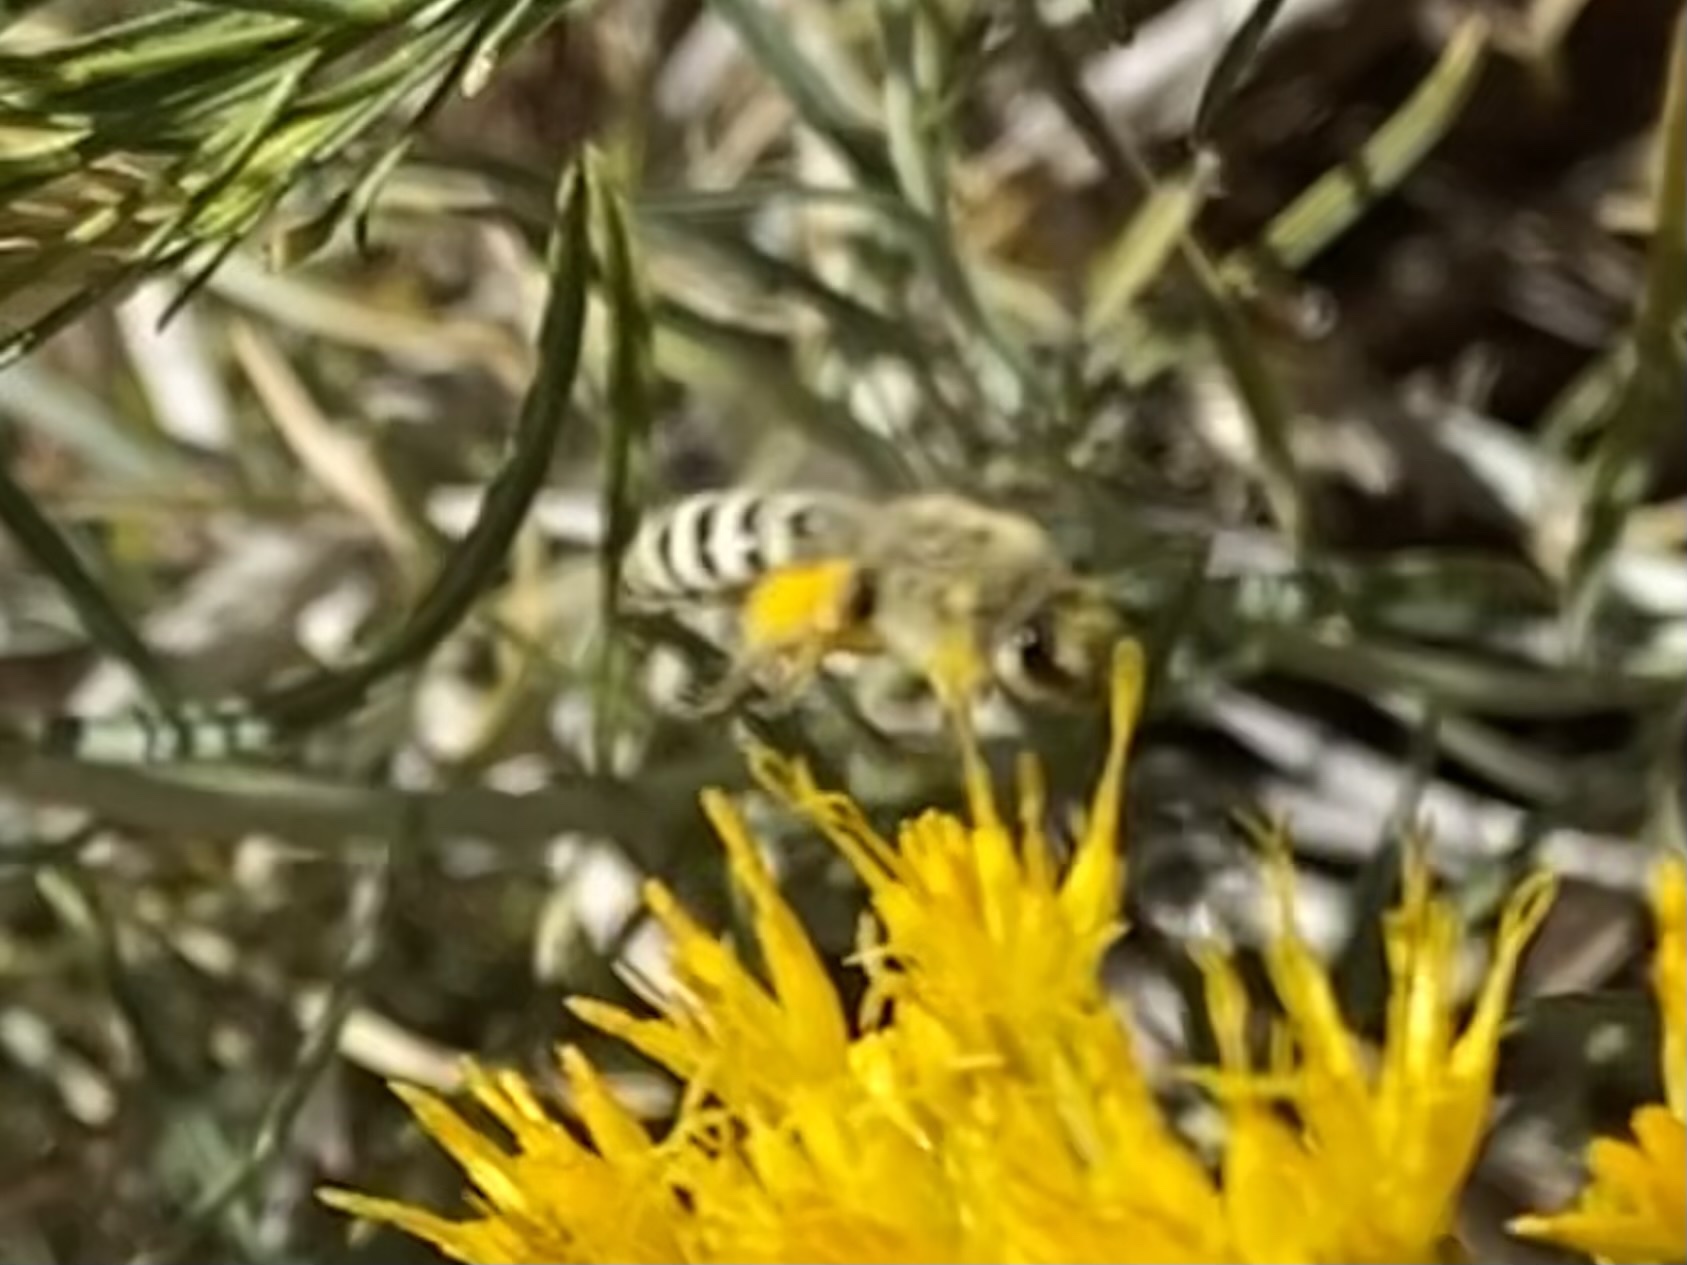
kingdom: Animalia
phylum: Arthropoda
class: Insecta
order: Hymenoptera
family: Colletidae
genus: Colletes
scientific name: Colletes
